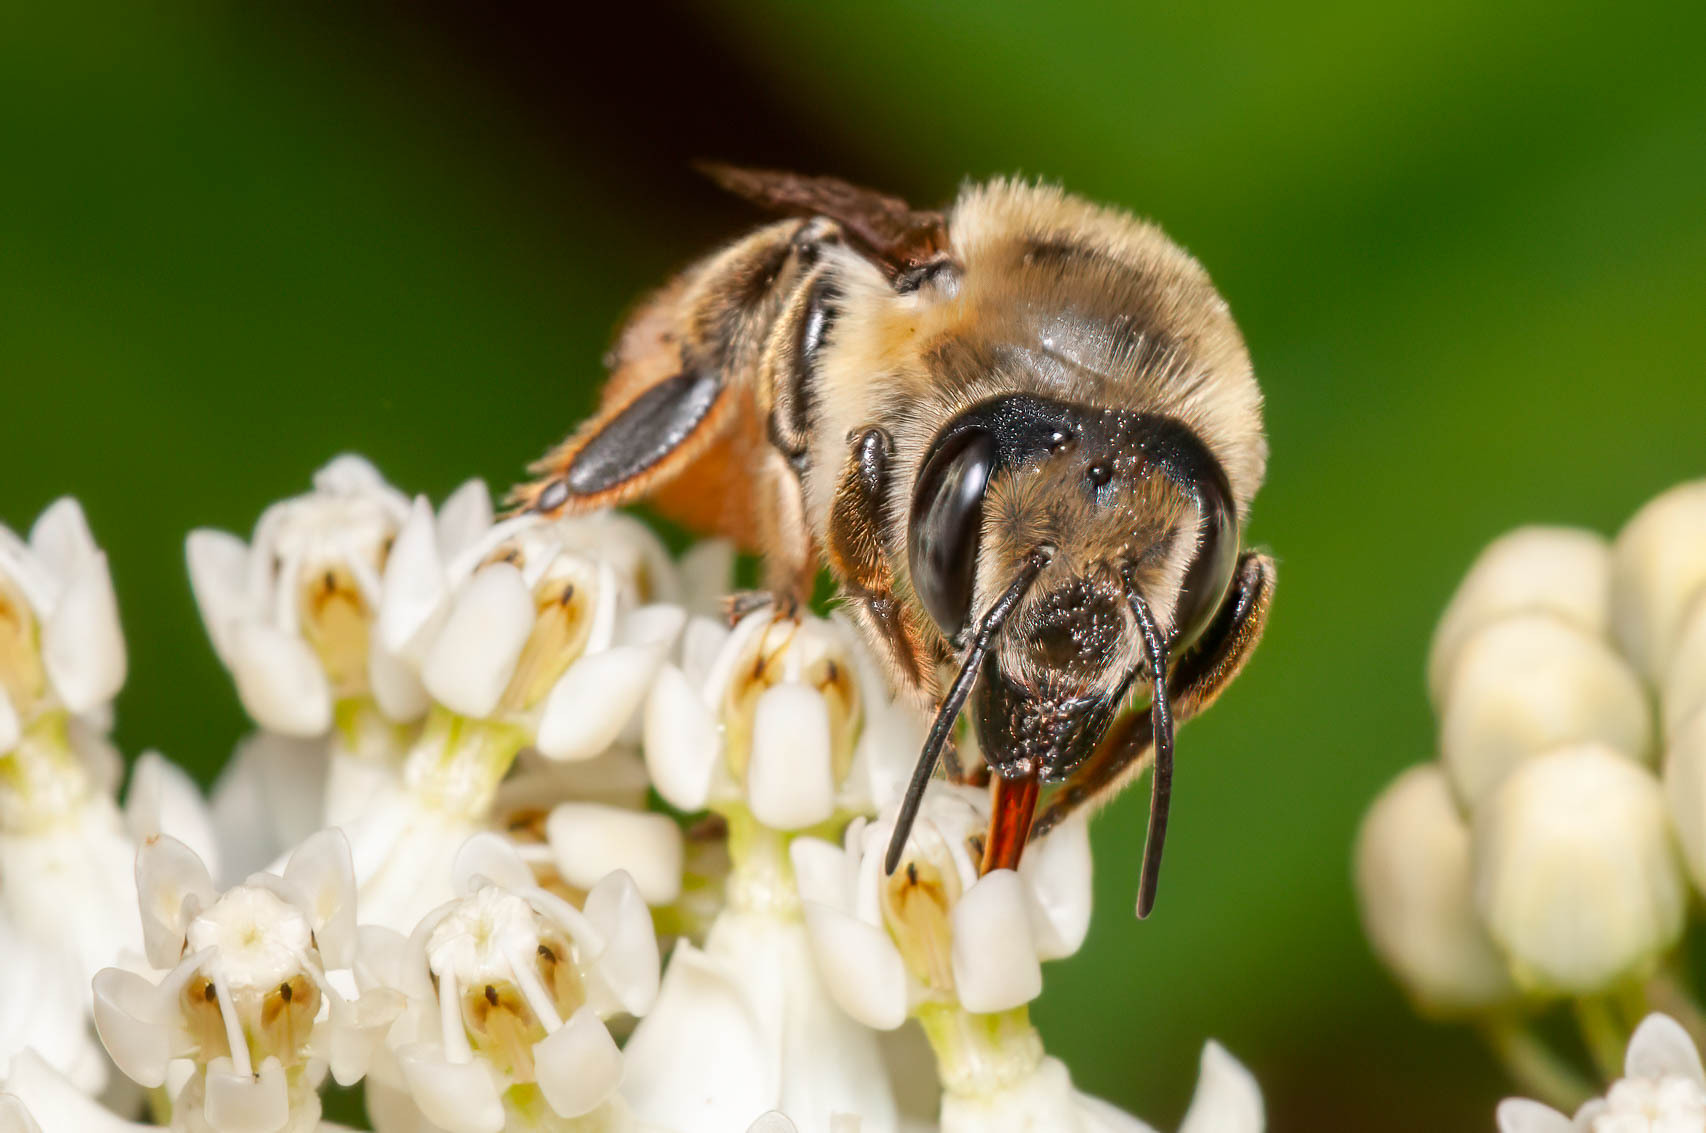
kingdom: Animalia
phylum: Arthropoda
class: Insecta
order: Hymenoptera
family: Megachilidae
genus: Megachile
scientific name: Megachile latimanus
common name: Leafcutting bee
